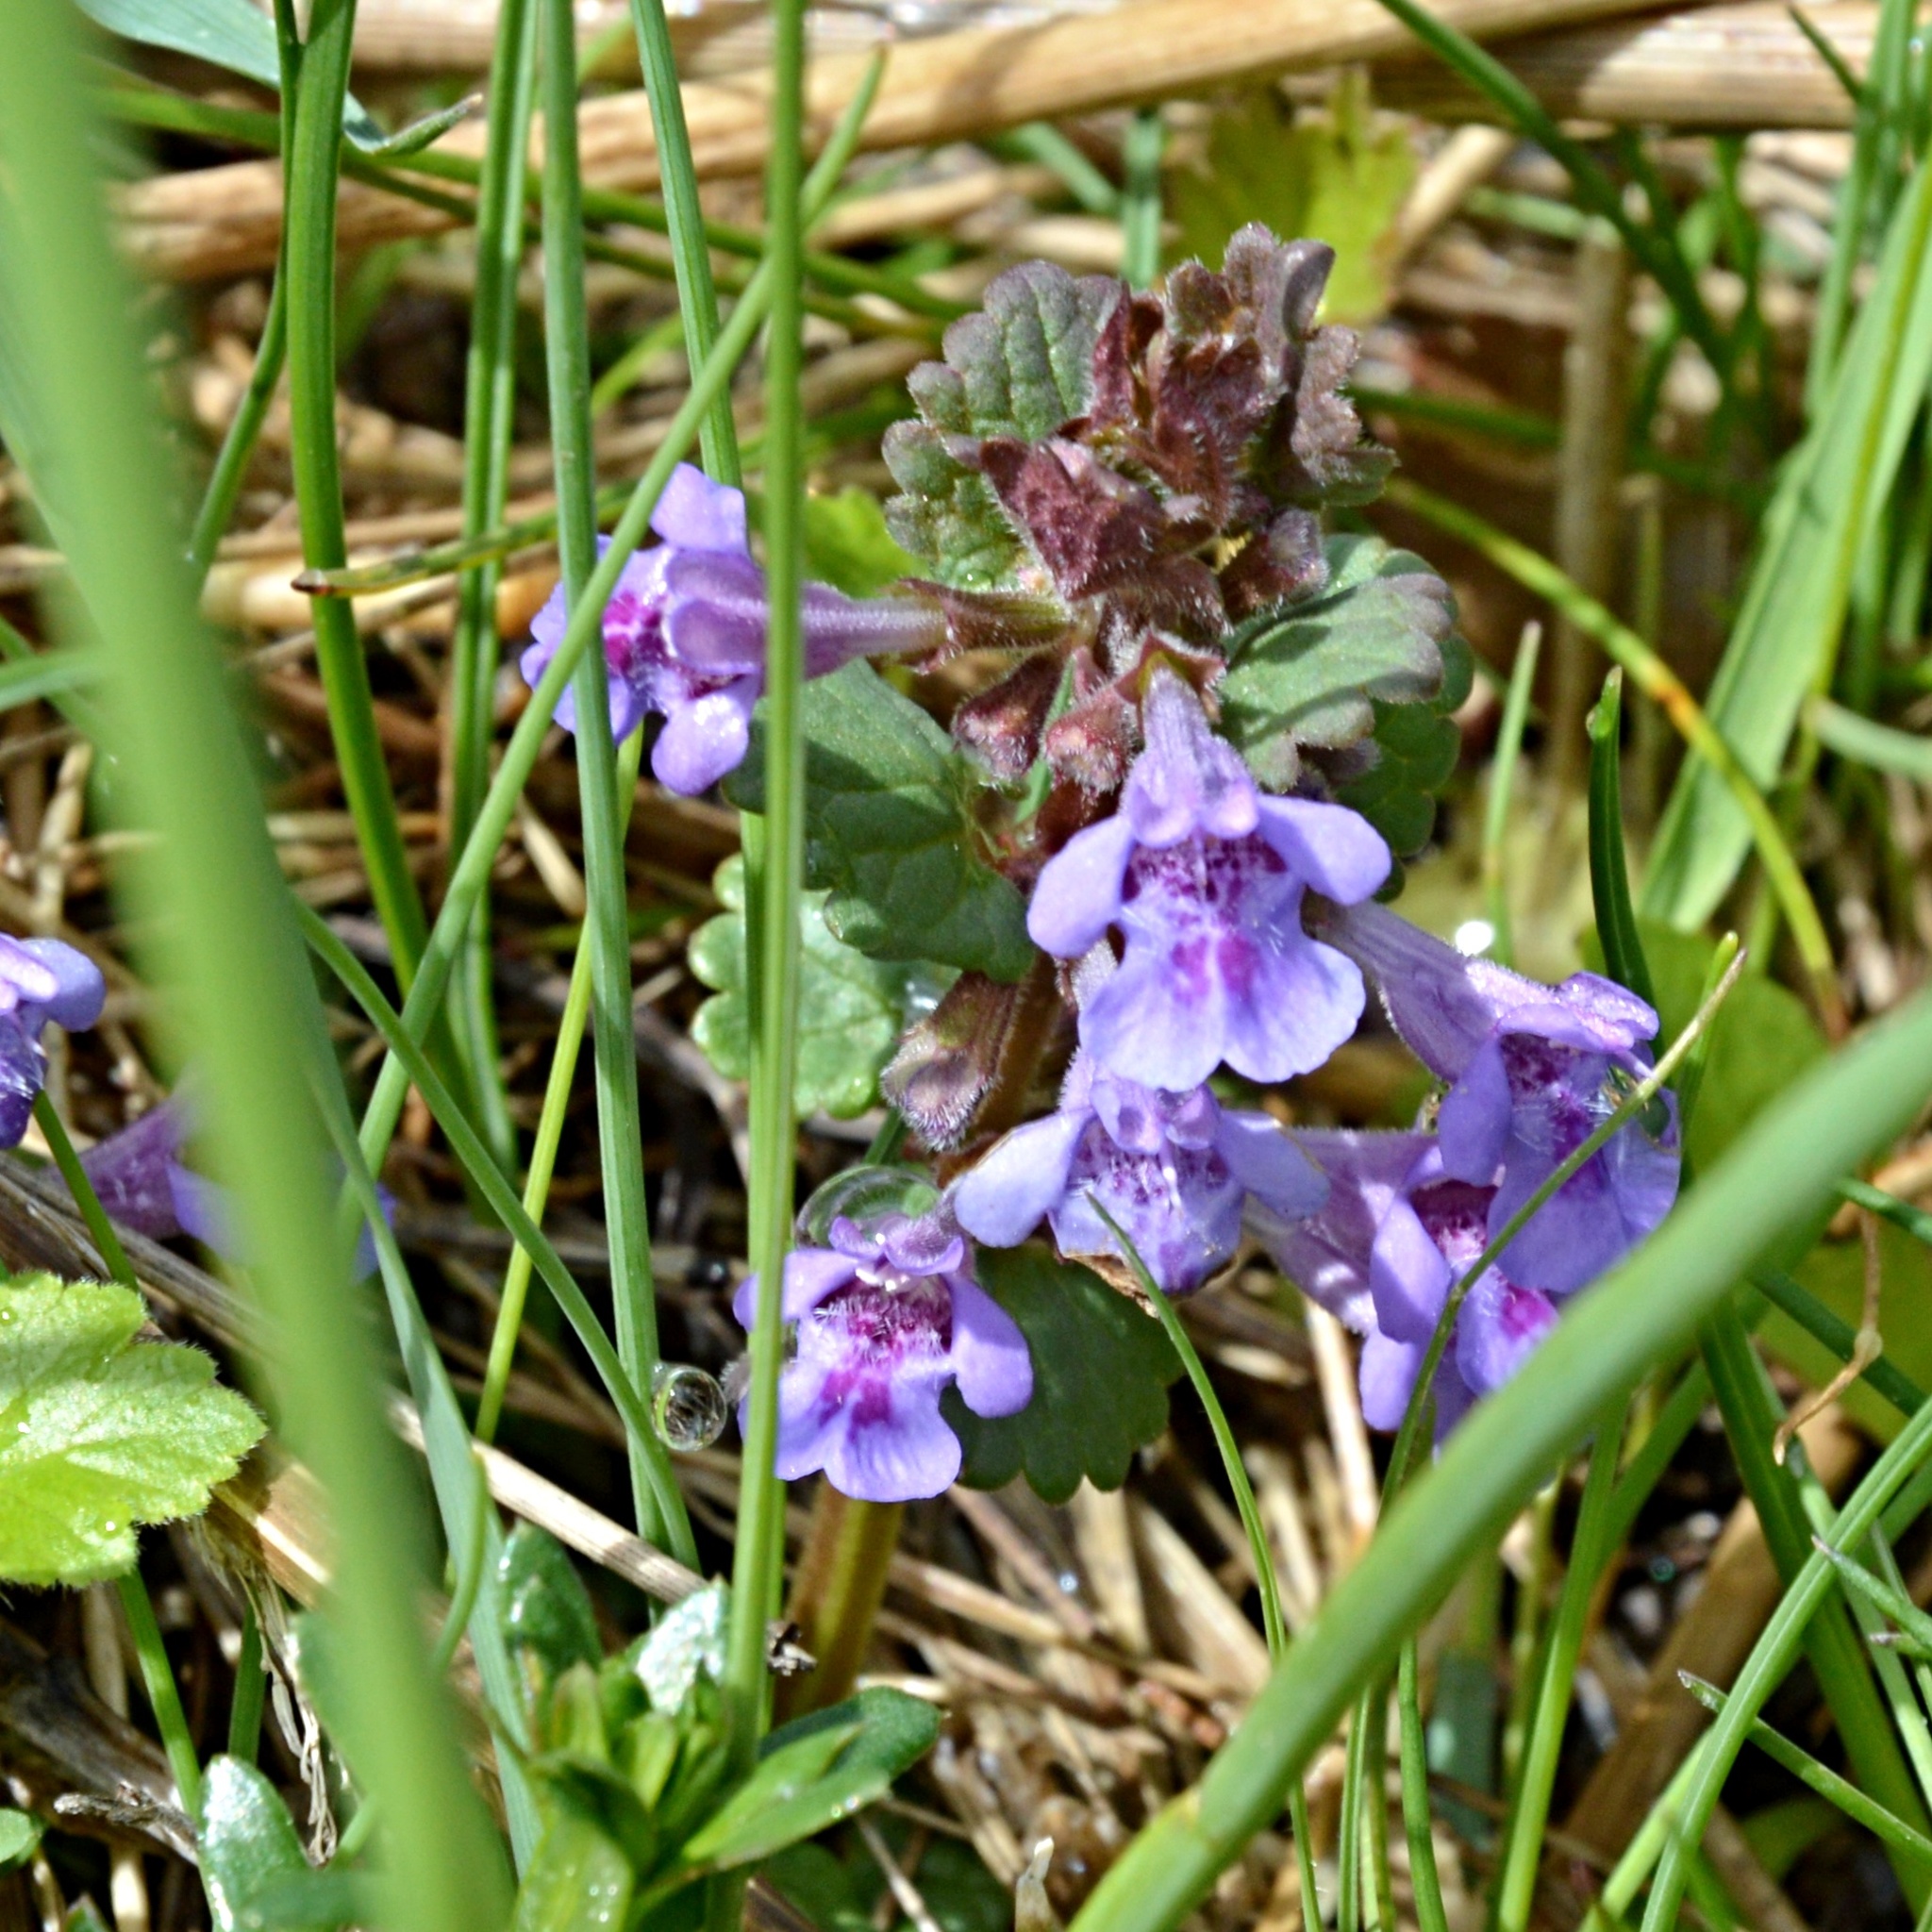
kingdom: Plantae
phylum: Tracheophyta
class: Magnoliopsida
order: Lamiales
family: Lamiaceae
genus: Glechoma
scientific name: Glechoma hederacea
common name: Ground ivy
